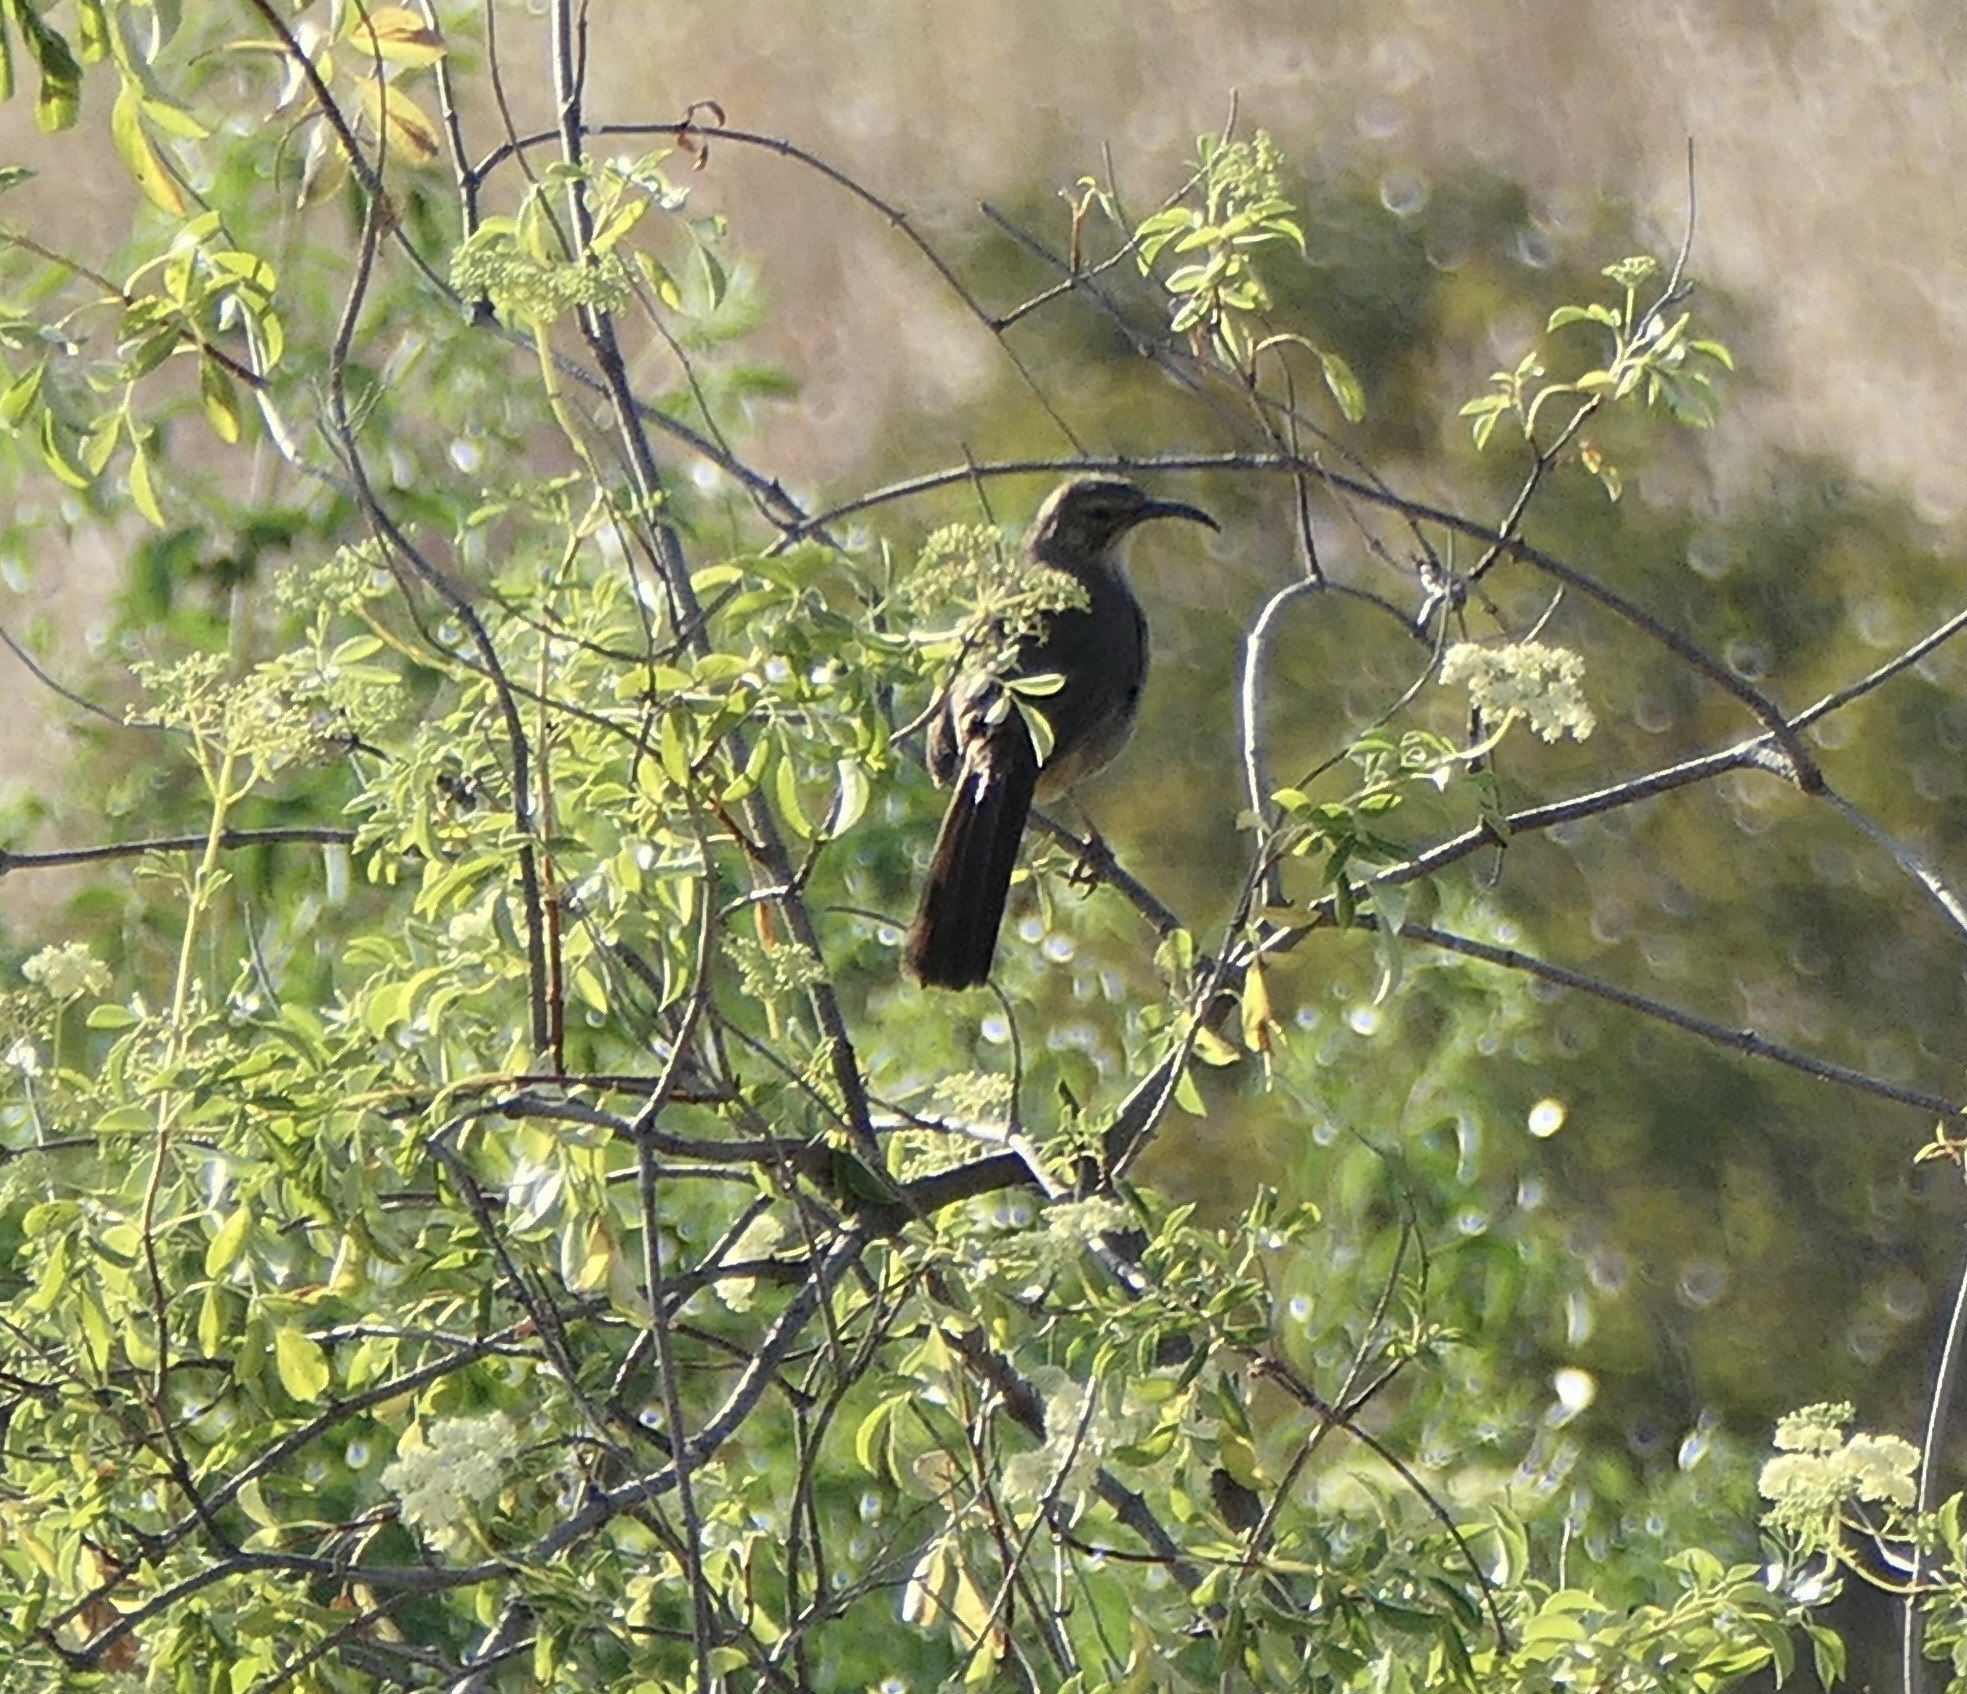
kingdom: Animalia
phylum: Chordata
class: Aves
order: Passeriformes
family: Mimidae
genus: Toxostoma
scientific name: Toxostoma redivivum
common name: California thrasher
